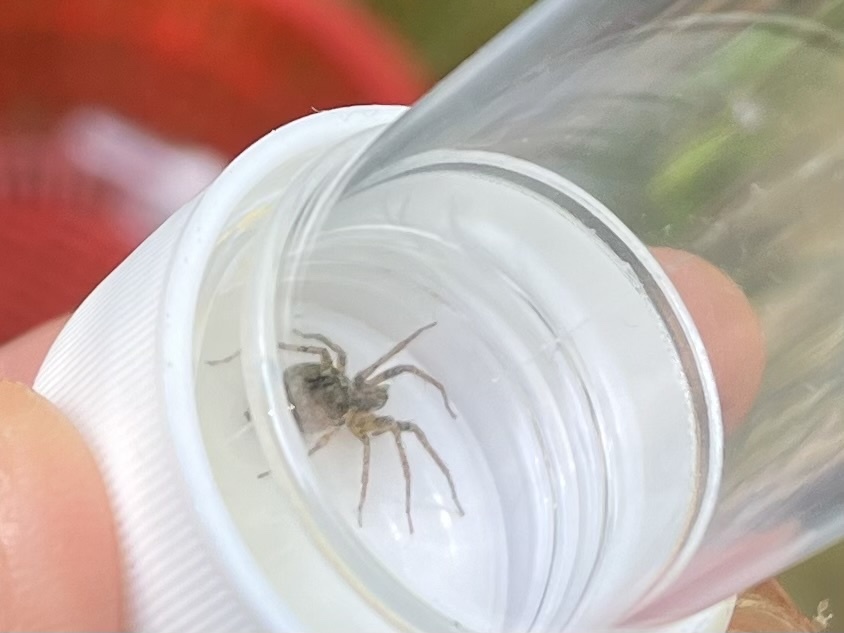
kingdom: Animalia
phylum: Arthropoda
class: Arachnida
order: Araneae
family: Anyphaenidae
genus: Anyphaena
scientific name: Anyphaena accentuata
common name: Buzzing spider
